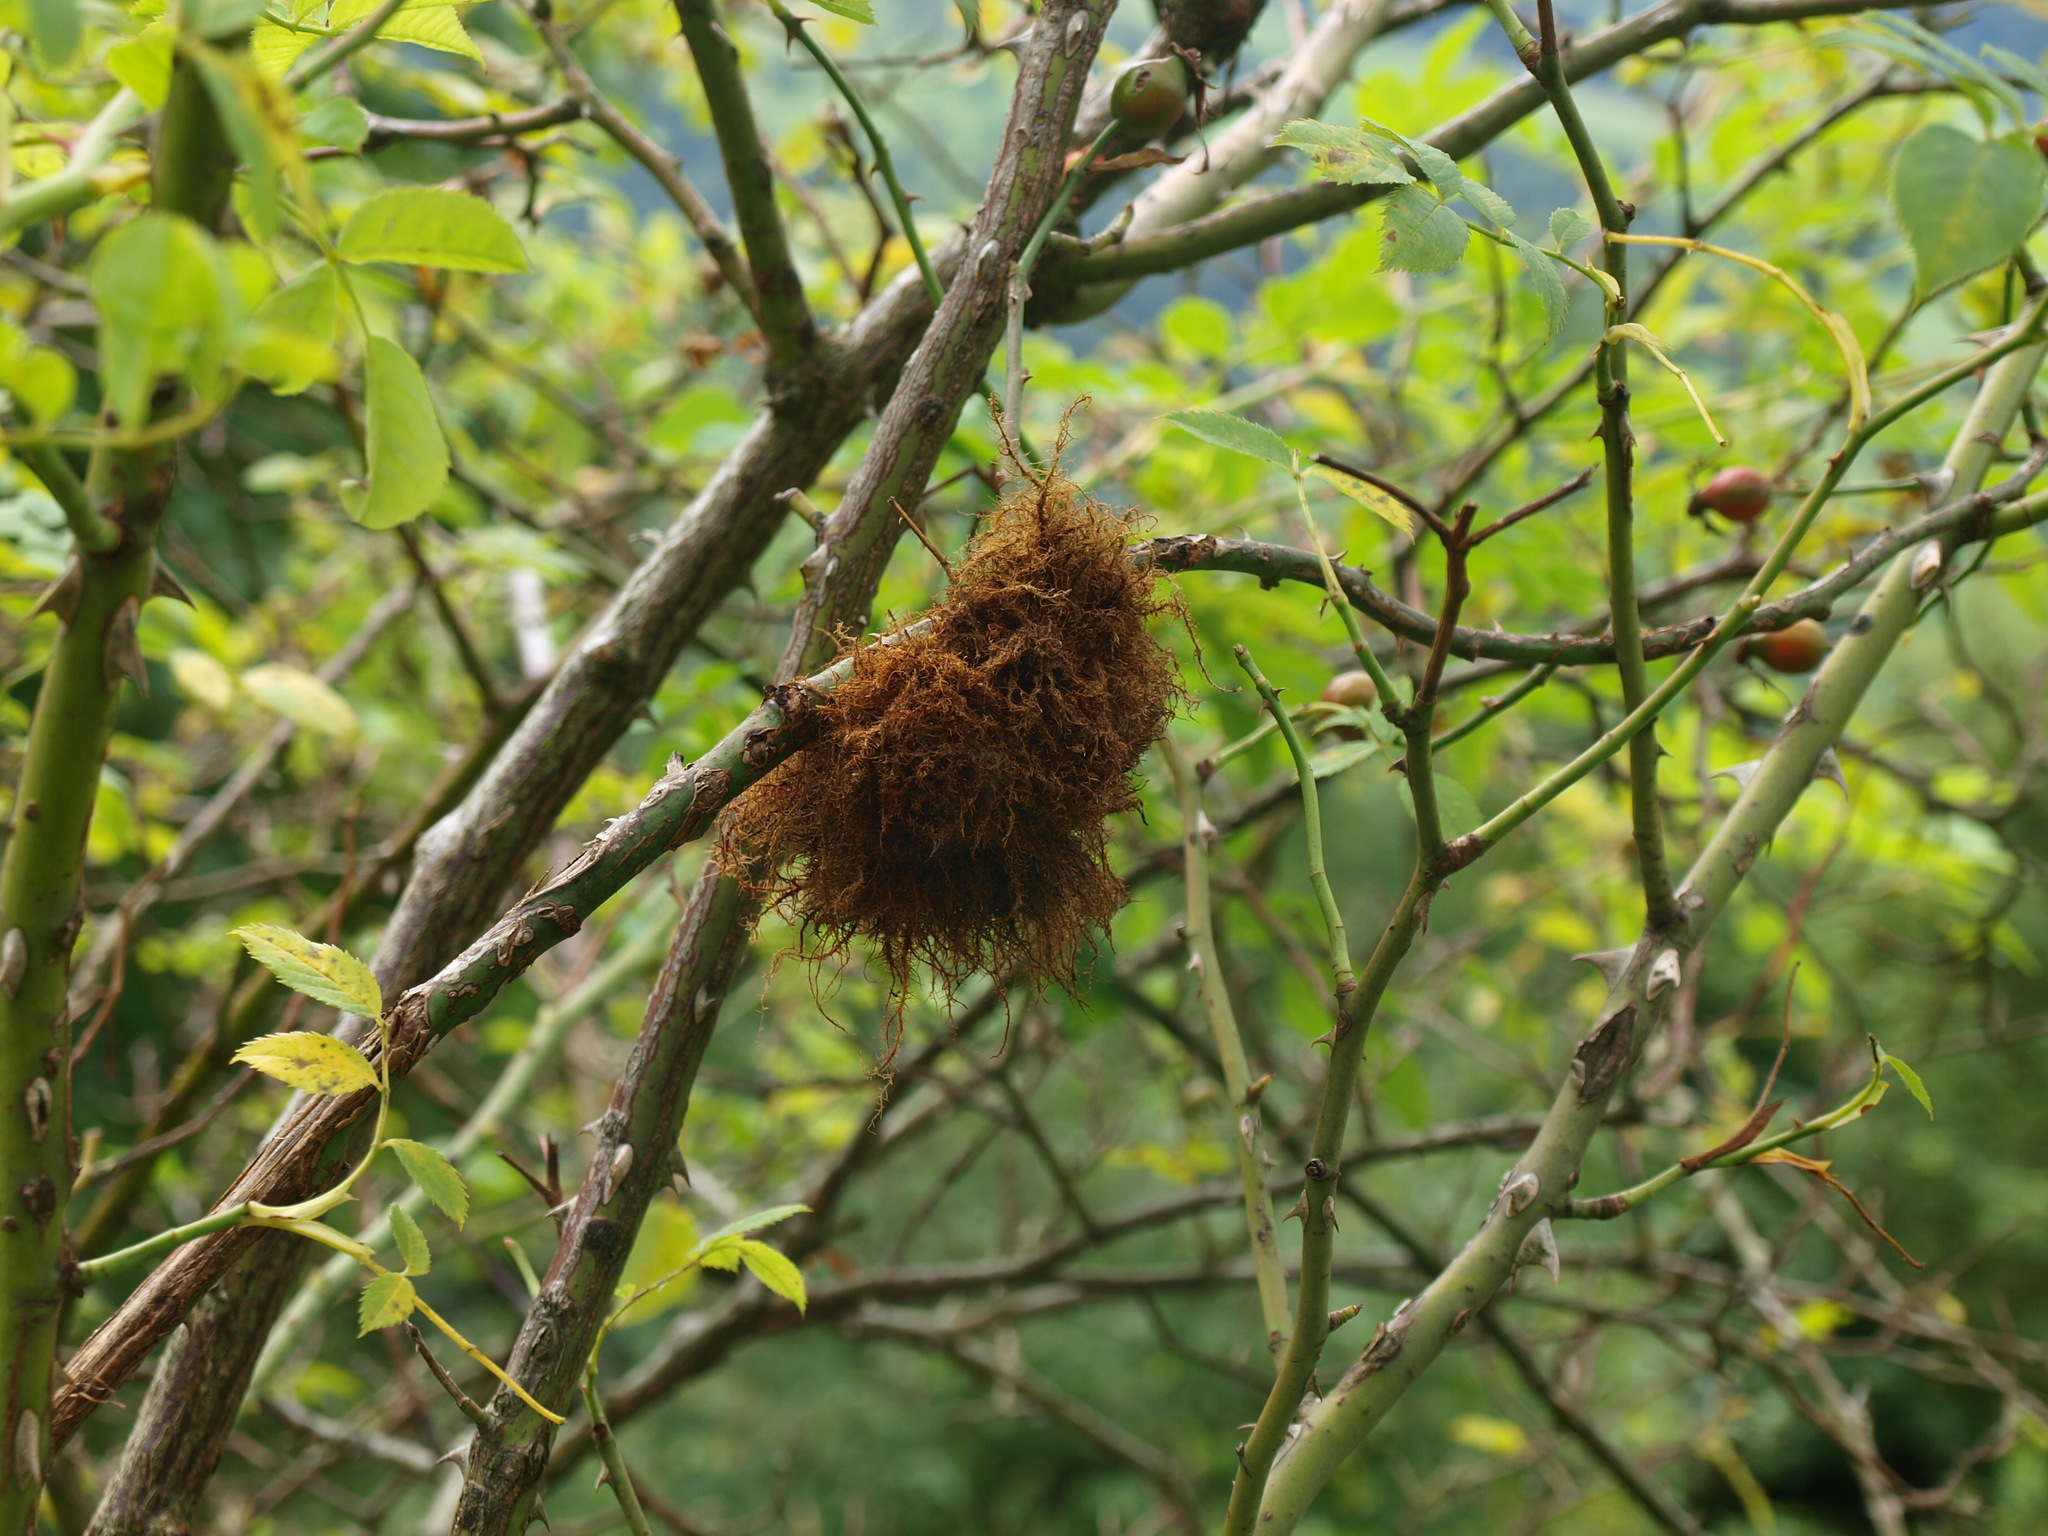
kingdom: Animalia
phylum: Arthropoda
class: Insecta
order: Hymenoptera
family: Cynipidae
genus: Diplolepis
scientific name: Diplolepis rosae
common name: Bedeguar gall
